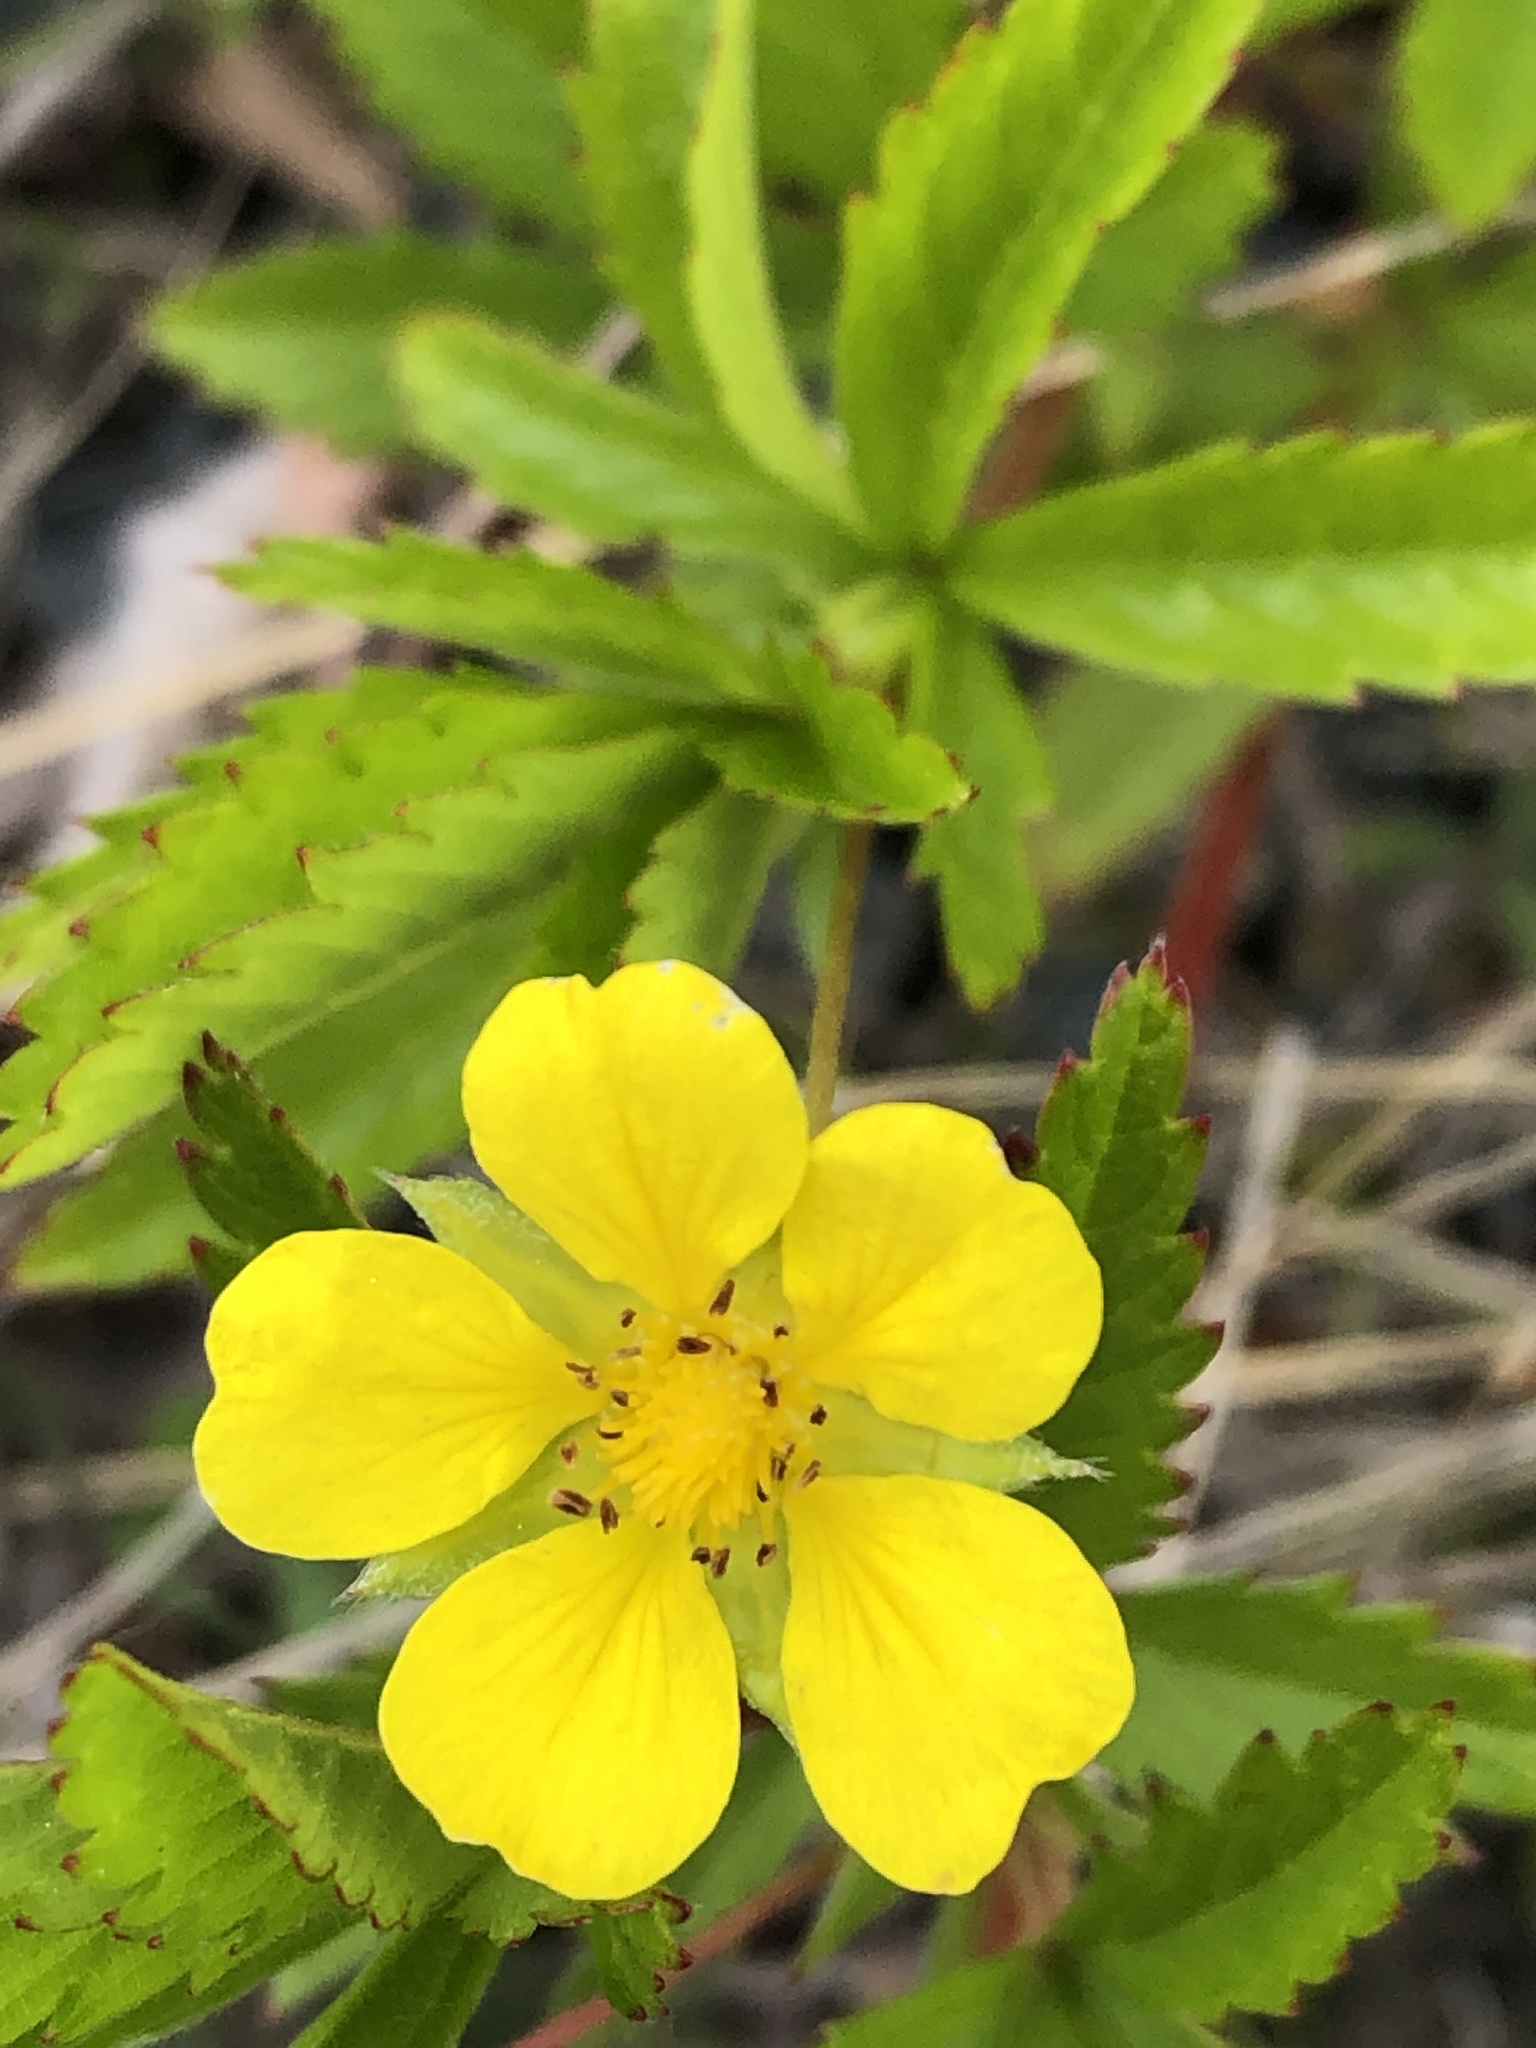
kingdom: Plantae
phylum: Tracheophyta
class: Magnoliopsida
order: Rosales
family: Rosaceae
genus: Potentilla
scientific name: Potentilla simplex
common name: Old field cinquefoil
